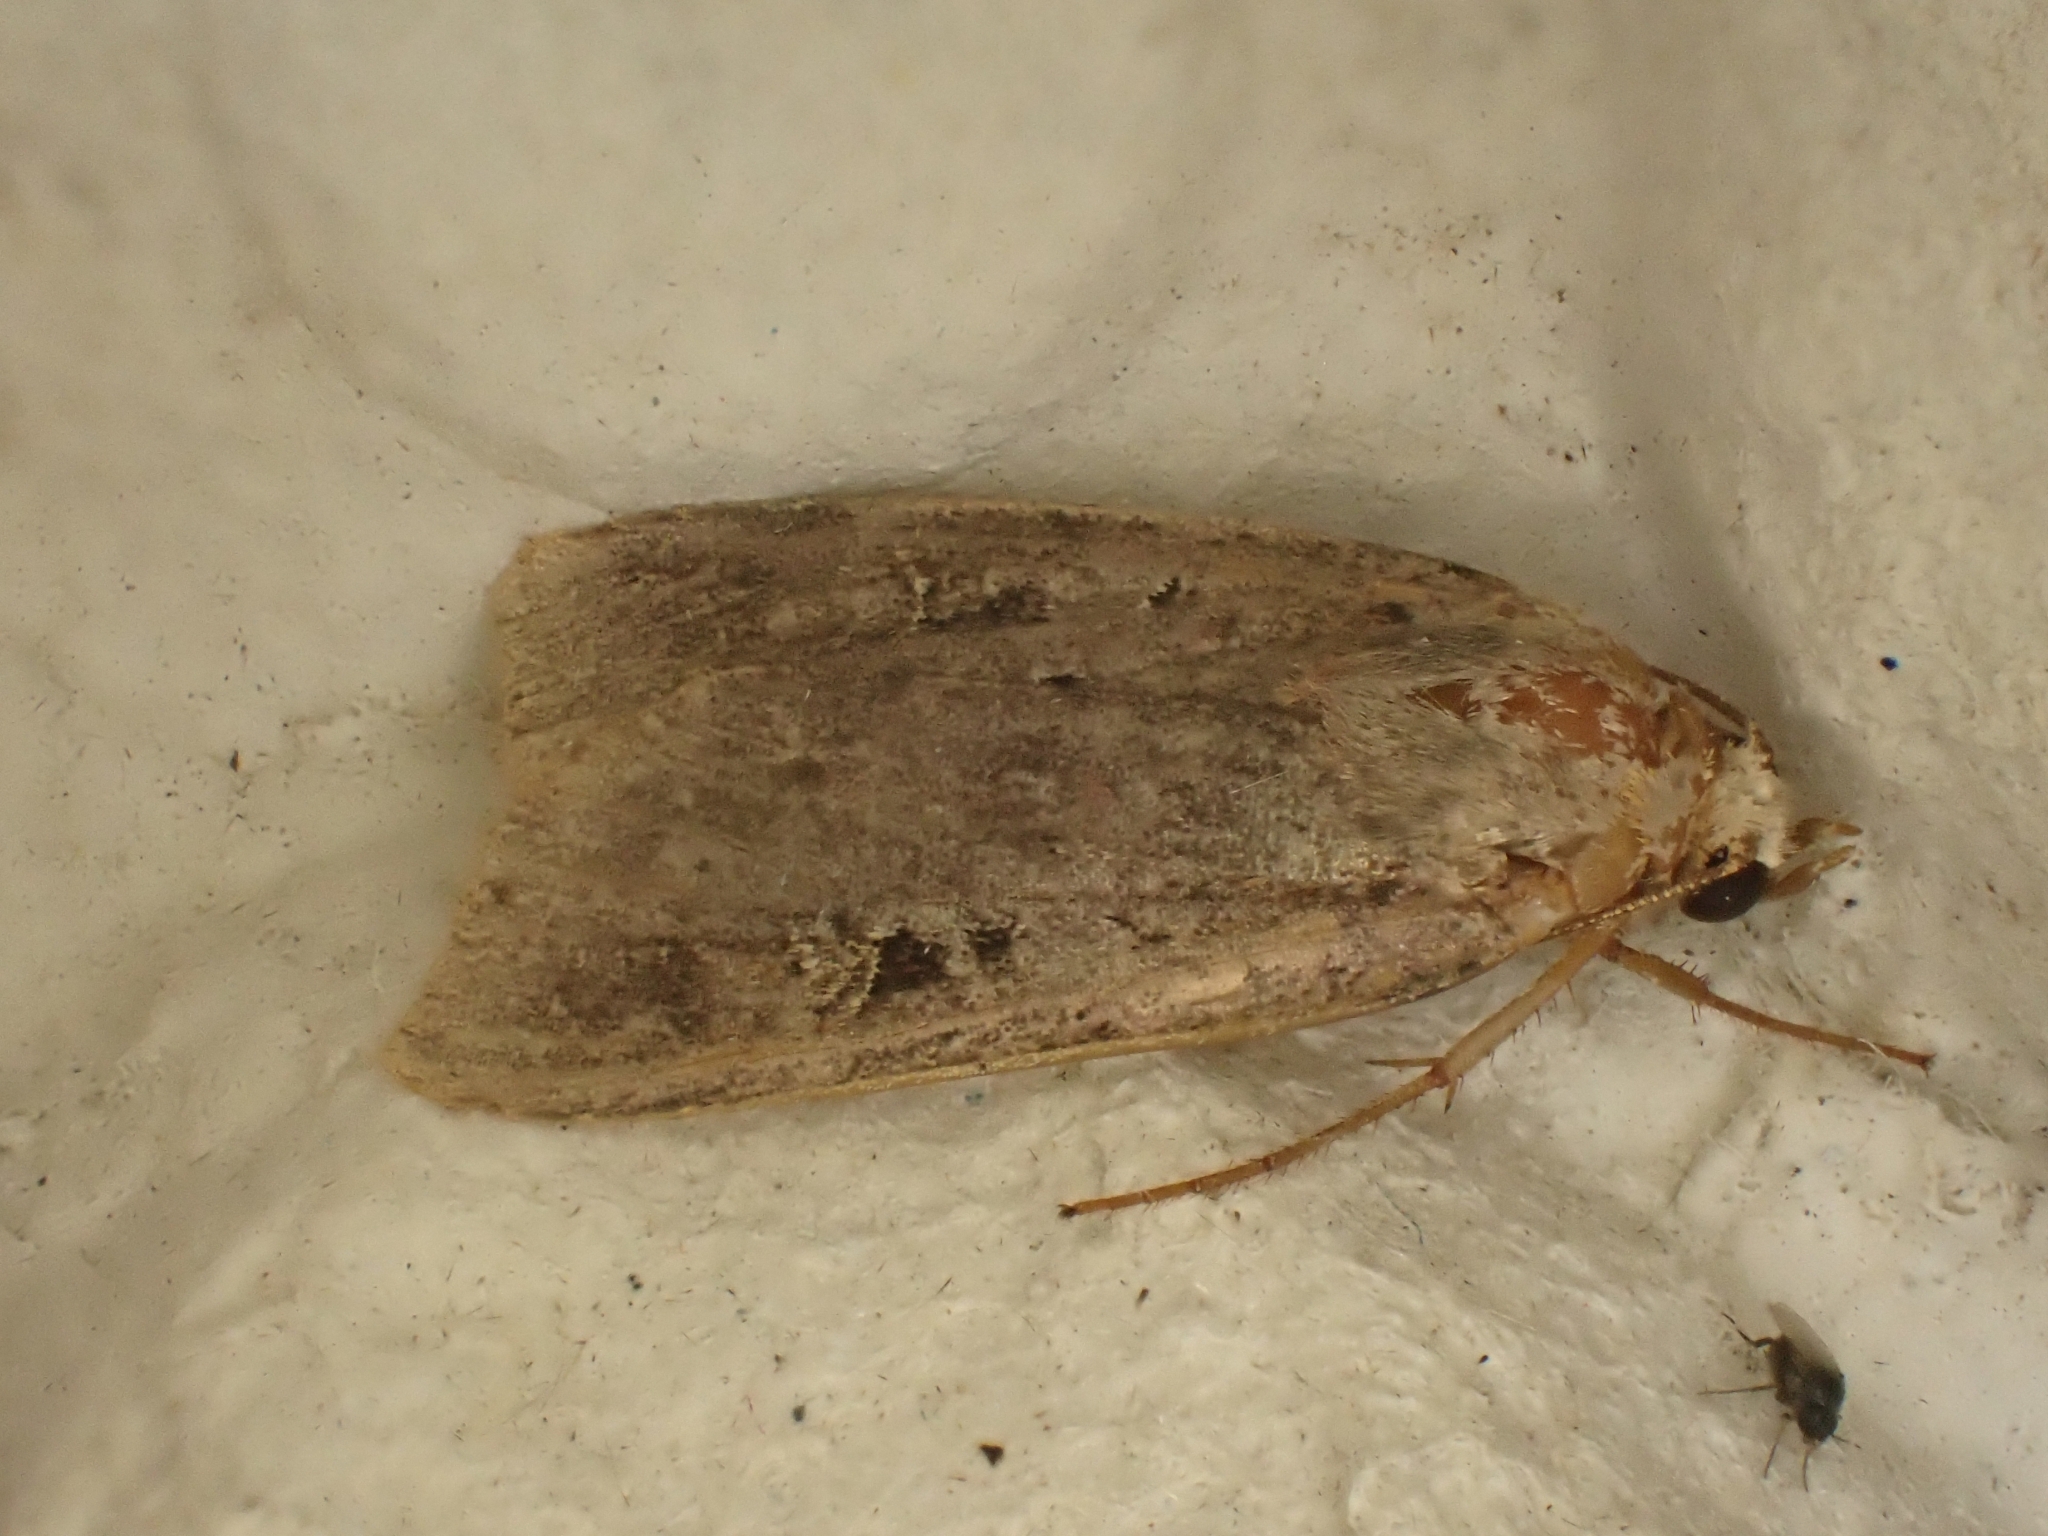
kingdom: Animalia
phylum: Arthropoda
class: Insecta
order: Lepidoptera
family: Noctuidae
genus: Diarsia
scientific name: Diarsia brunnea
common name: Purple clay
